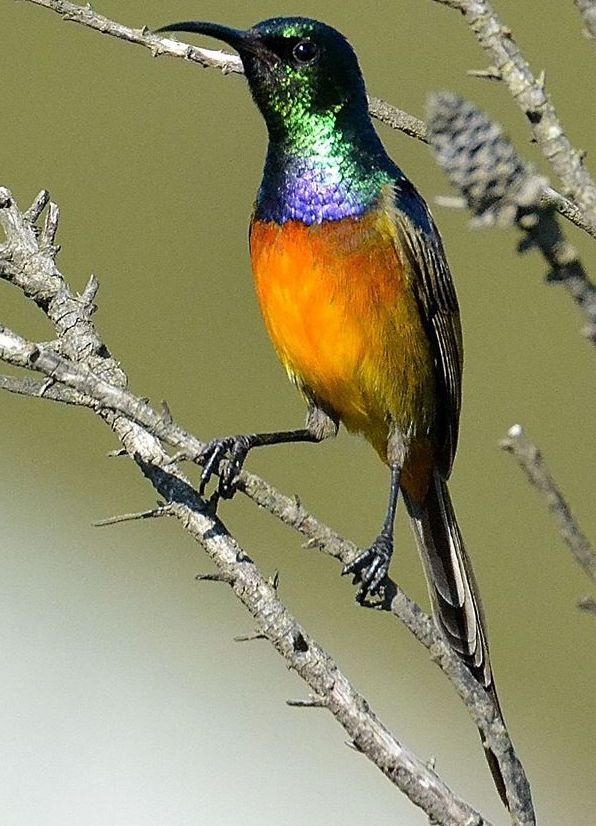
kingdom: Animalia
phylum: Chordata
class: Aves
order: Passeriformes
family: Nectariniidae
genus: Anthobaphes
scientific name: Anthobaphes violacea
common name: Orange-breasted sunbird
